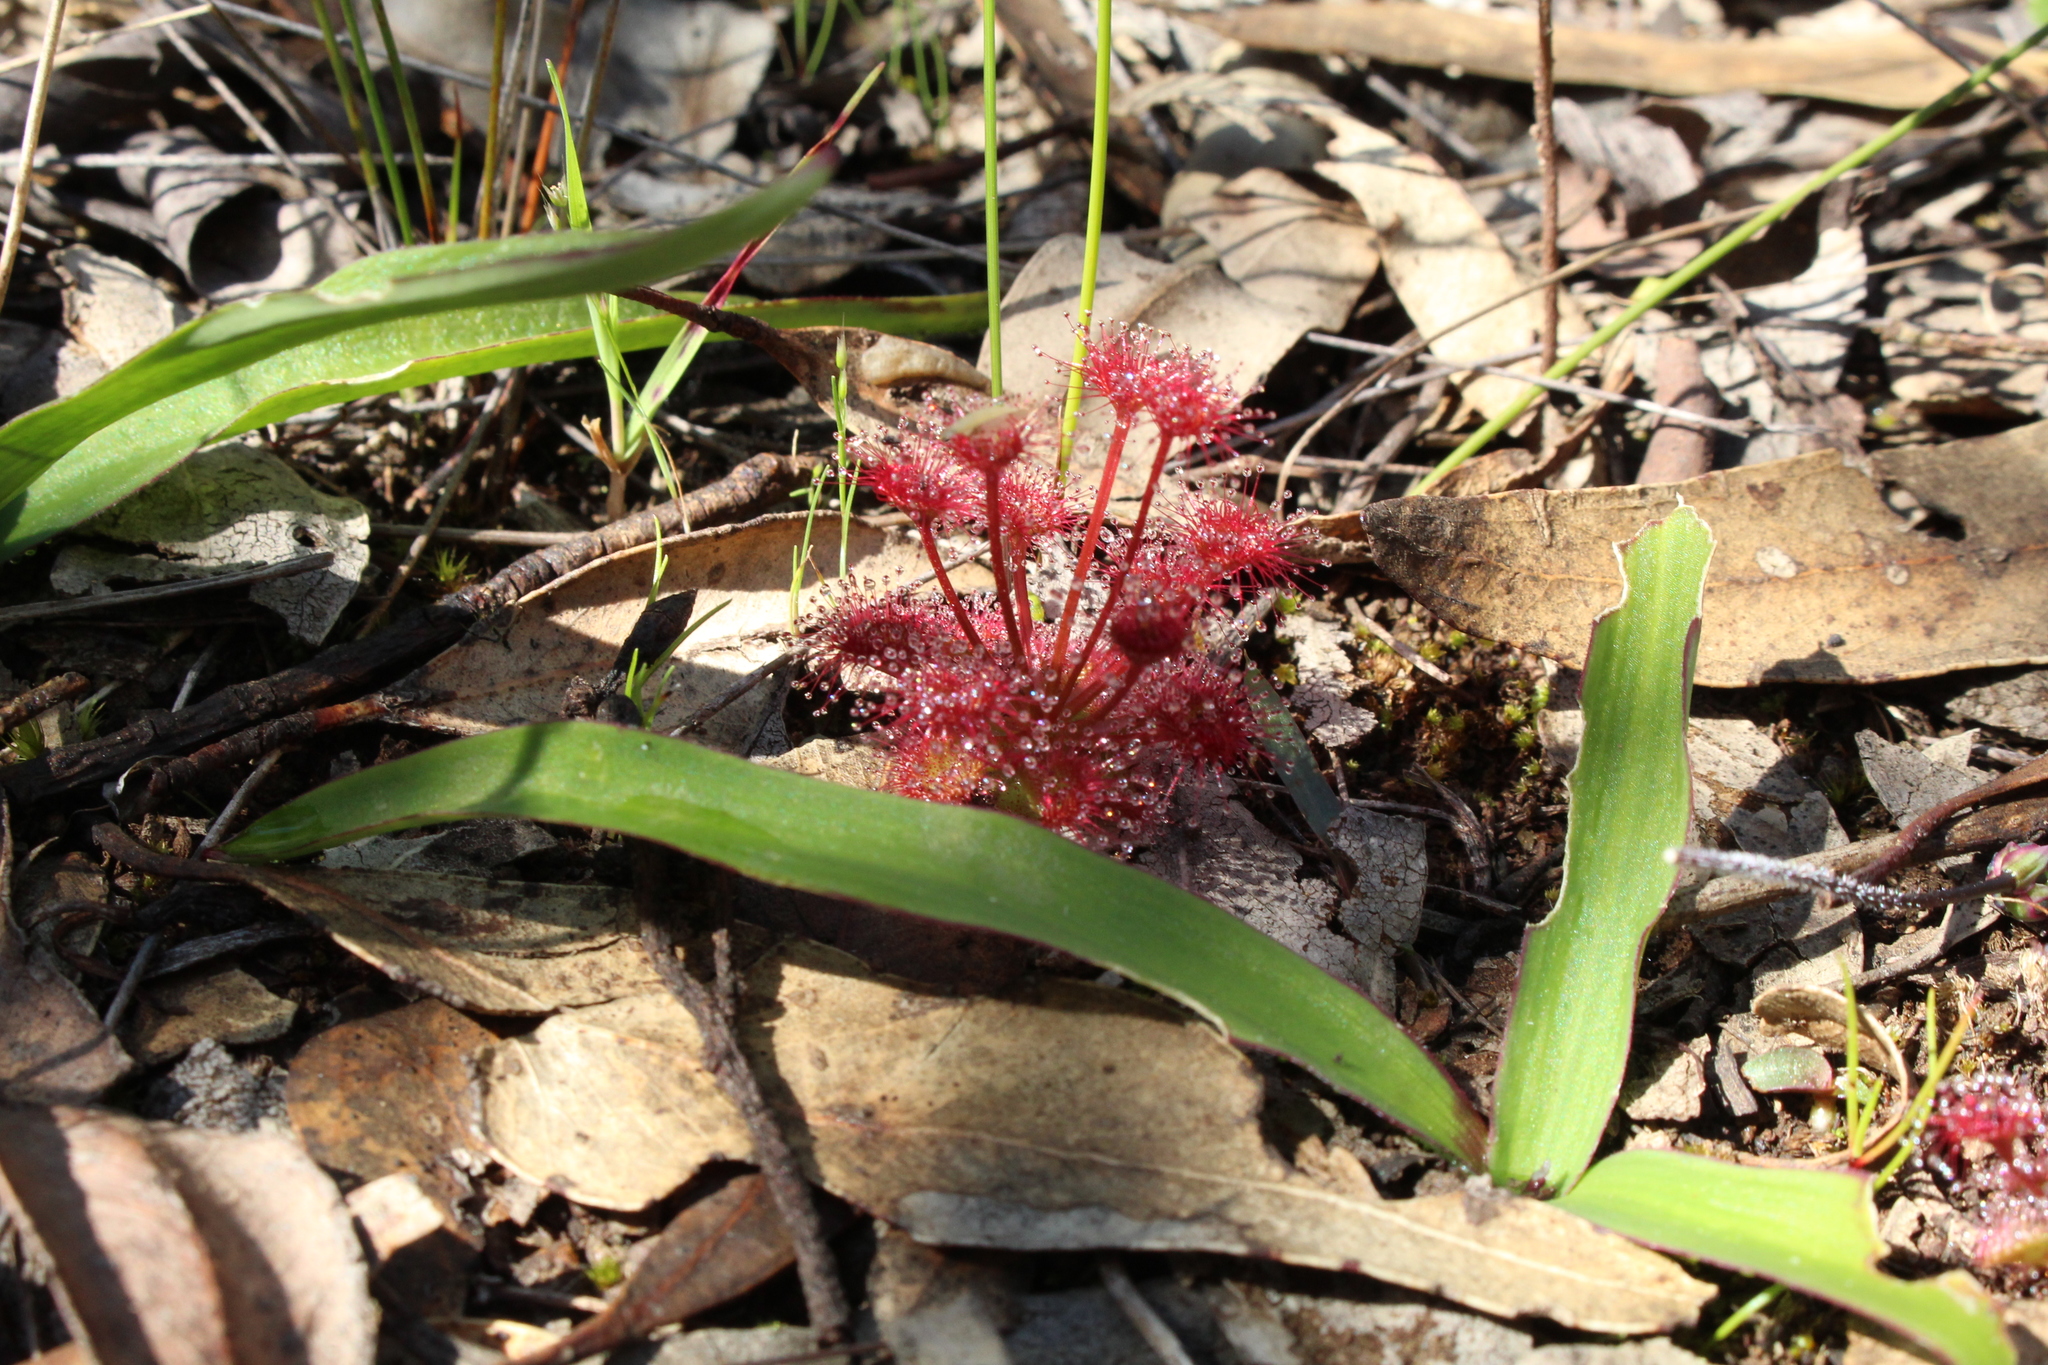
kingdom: Plantae
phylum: Tracheophyta
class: Magnoliopsida
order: Caryophyllales
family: Droseraceae
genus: Drosera
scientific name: Drosera stolonifera
